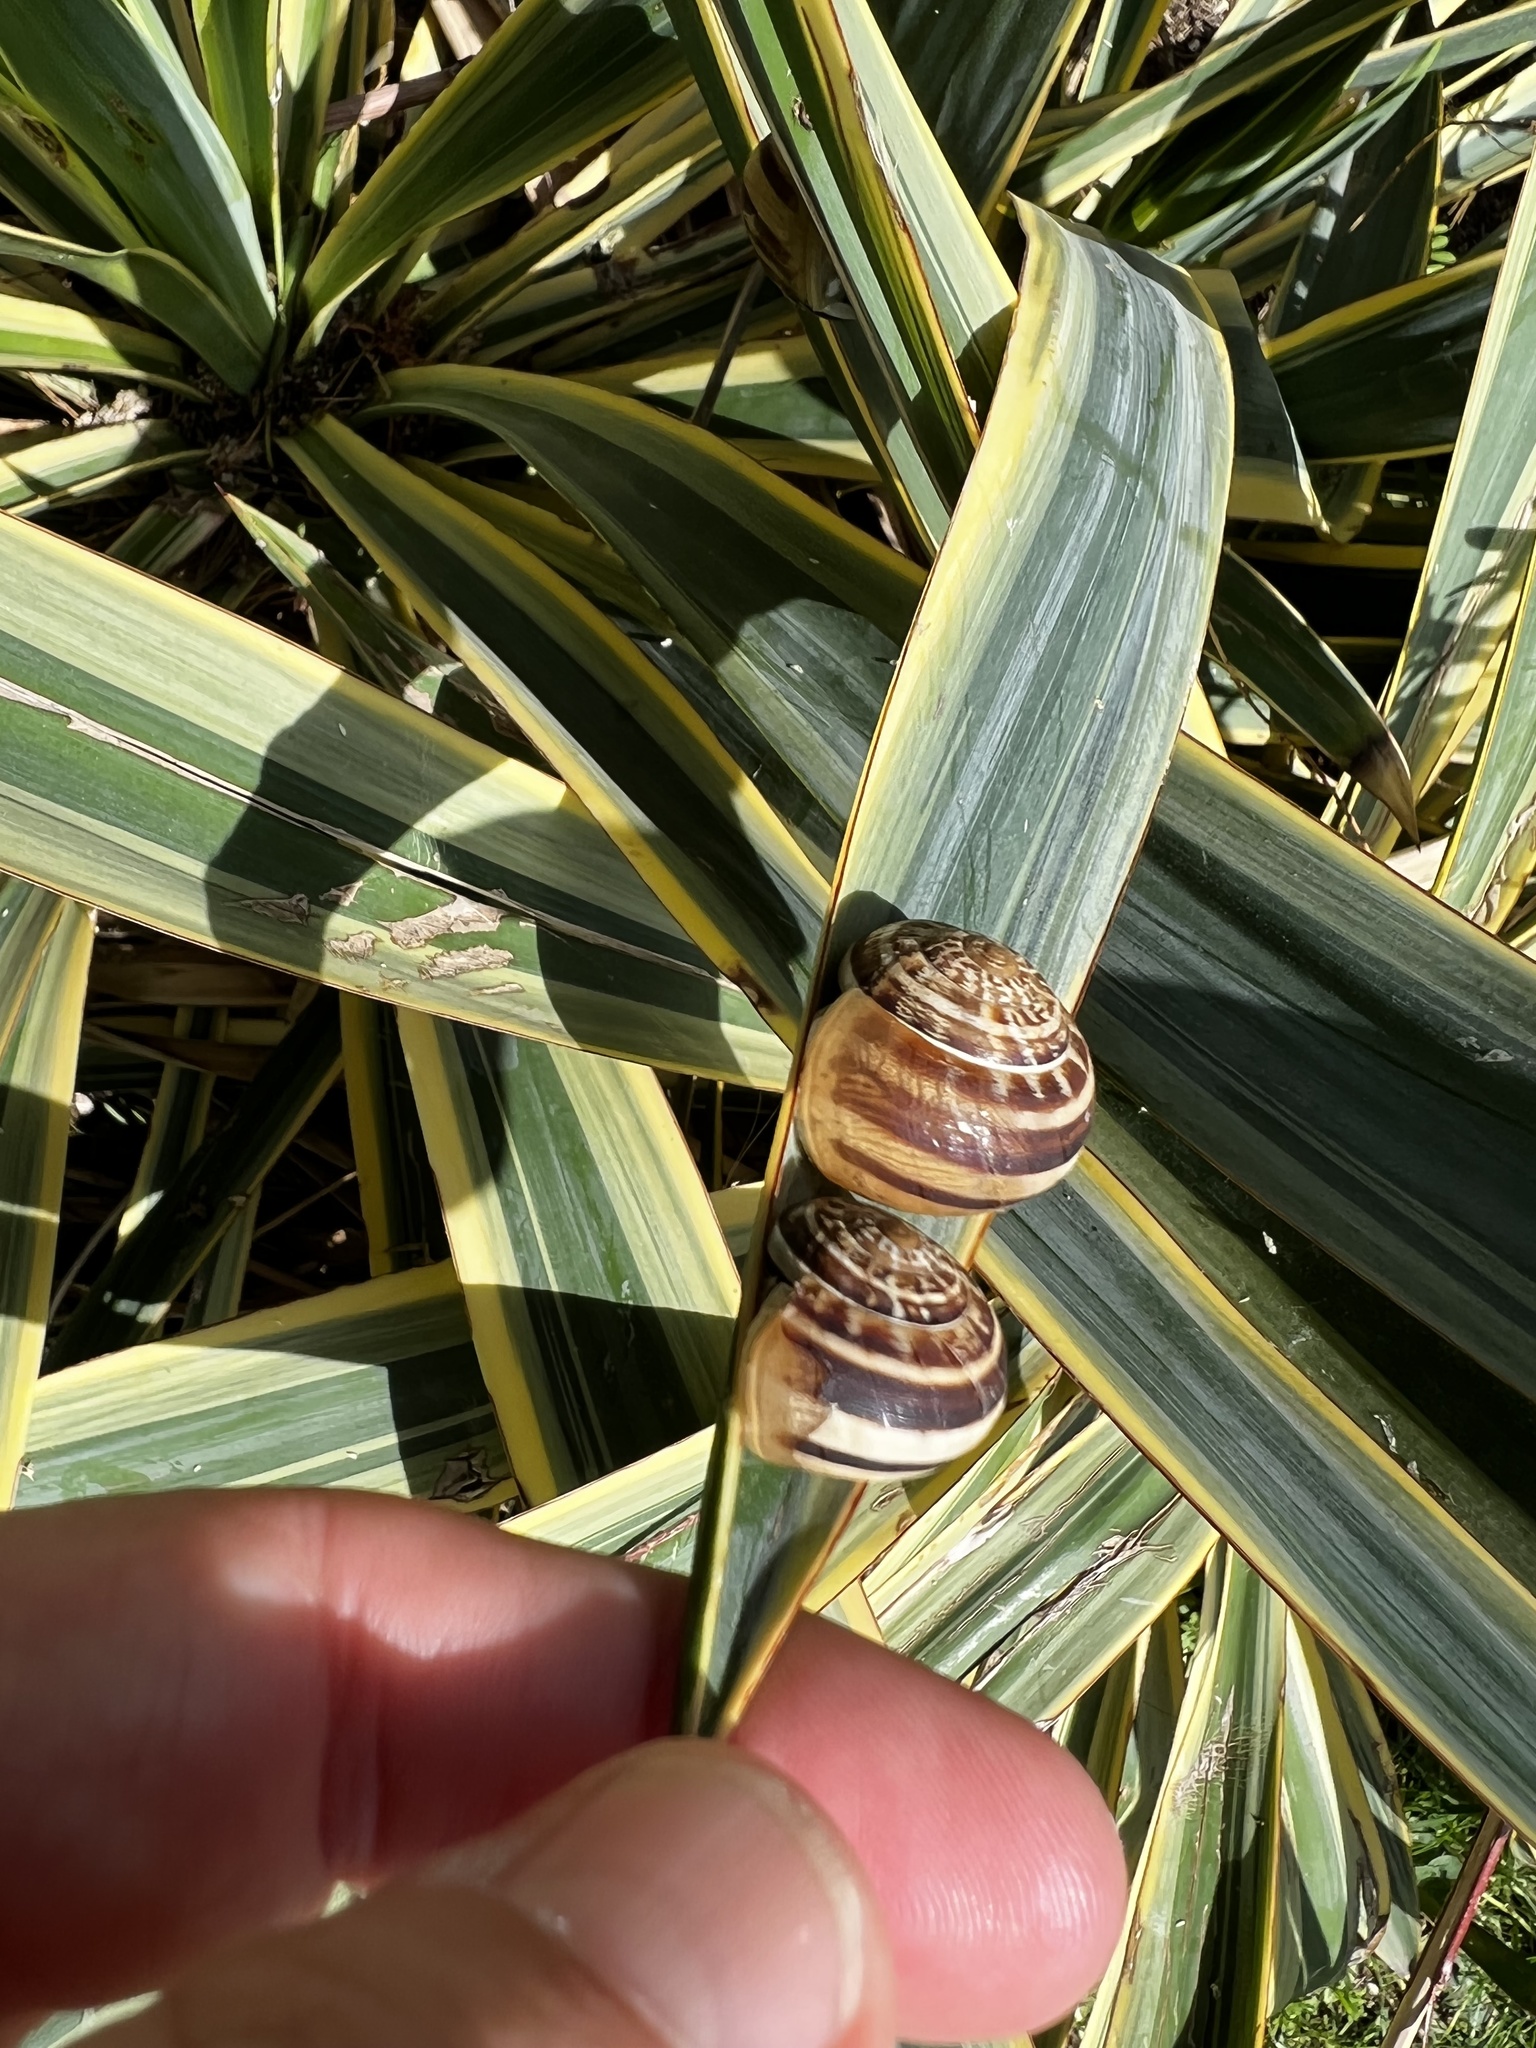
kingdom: Animalia
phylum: Mollusca
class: Gastropoda
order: Stylommatophora
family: Helicidae
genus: Eobania
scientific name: Eobania vermiculata
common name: Chocolateband snail
